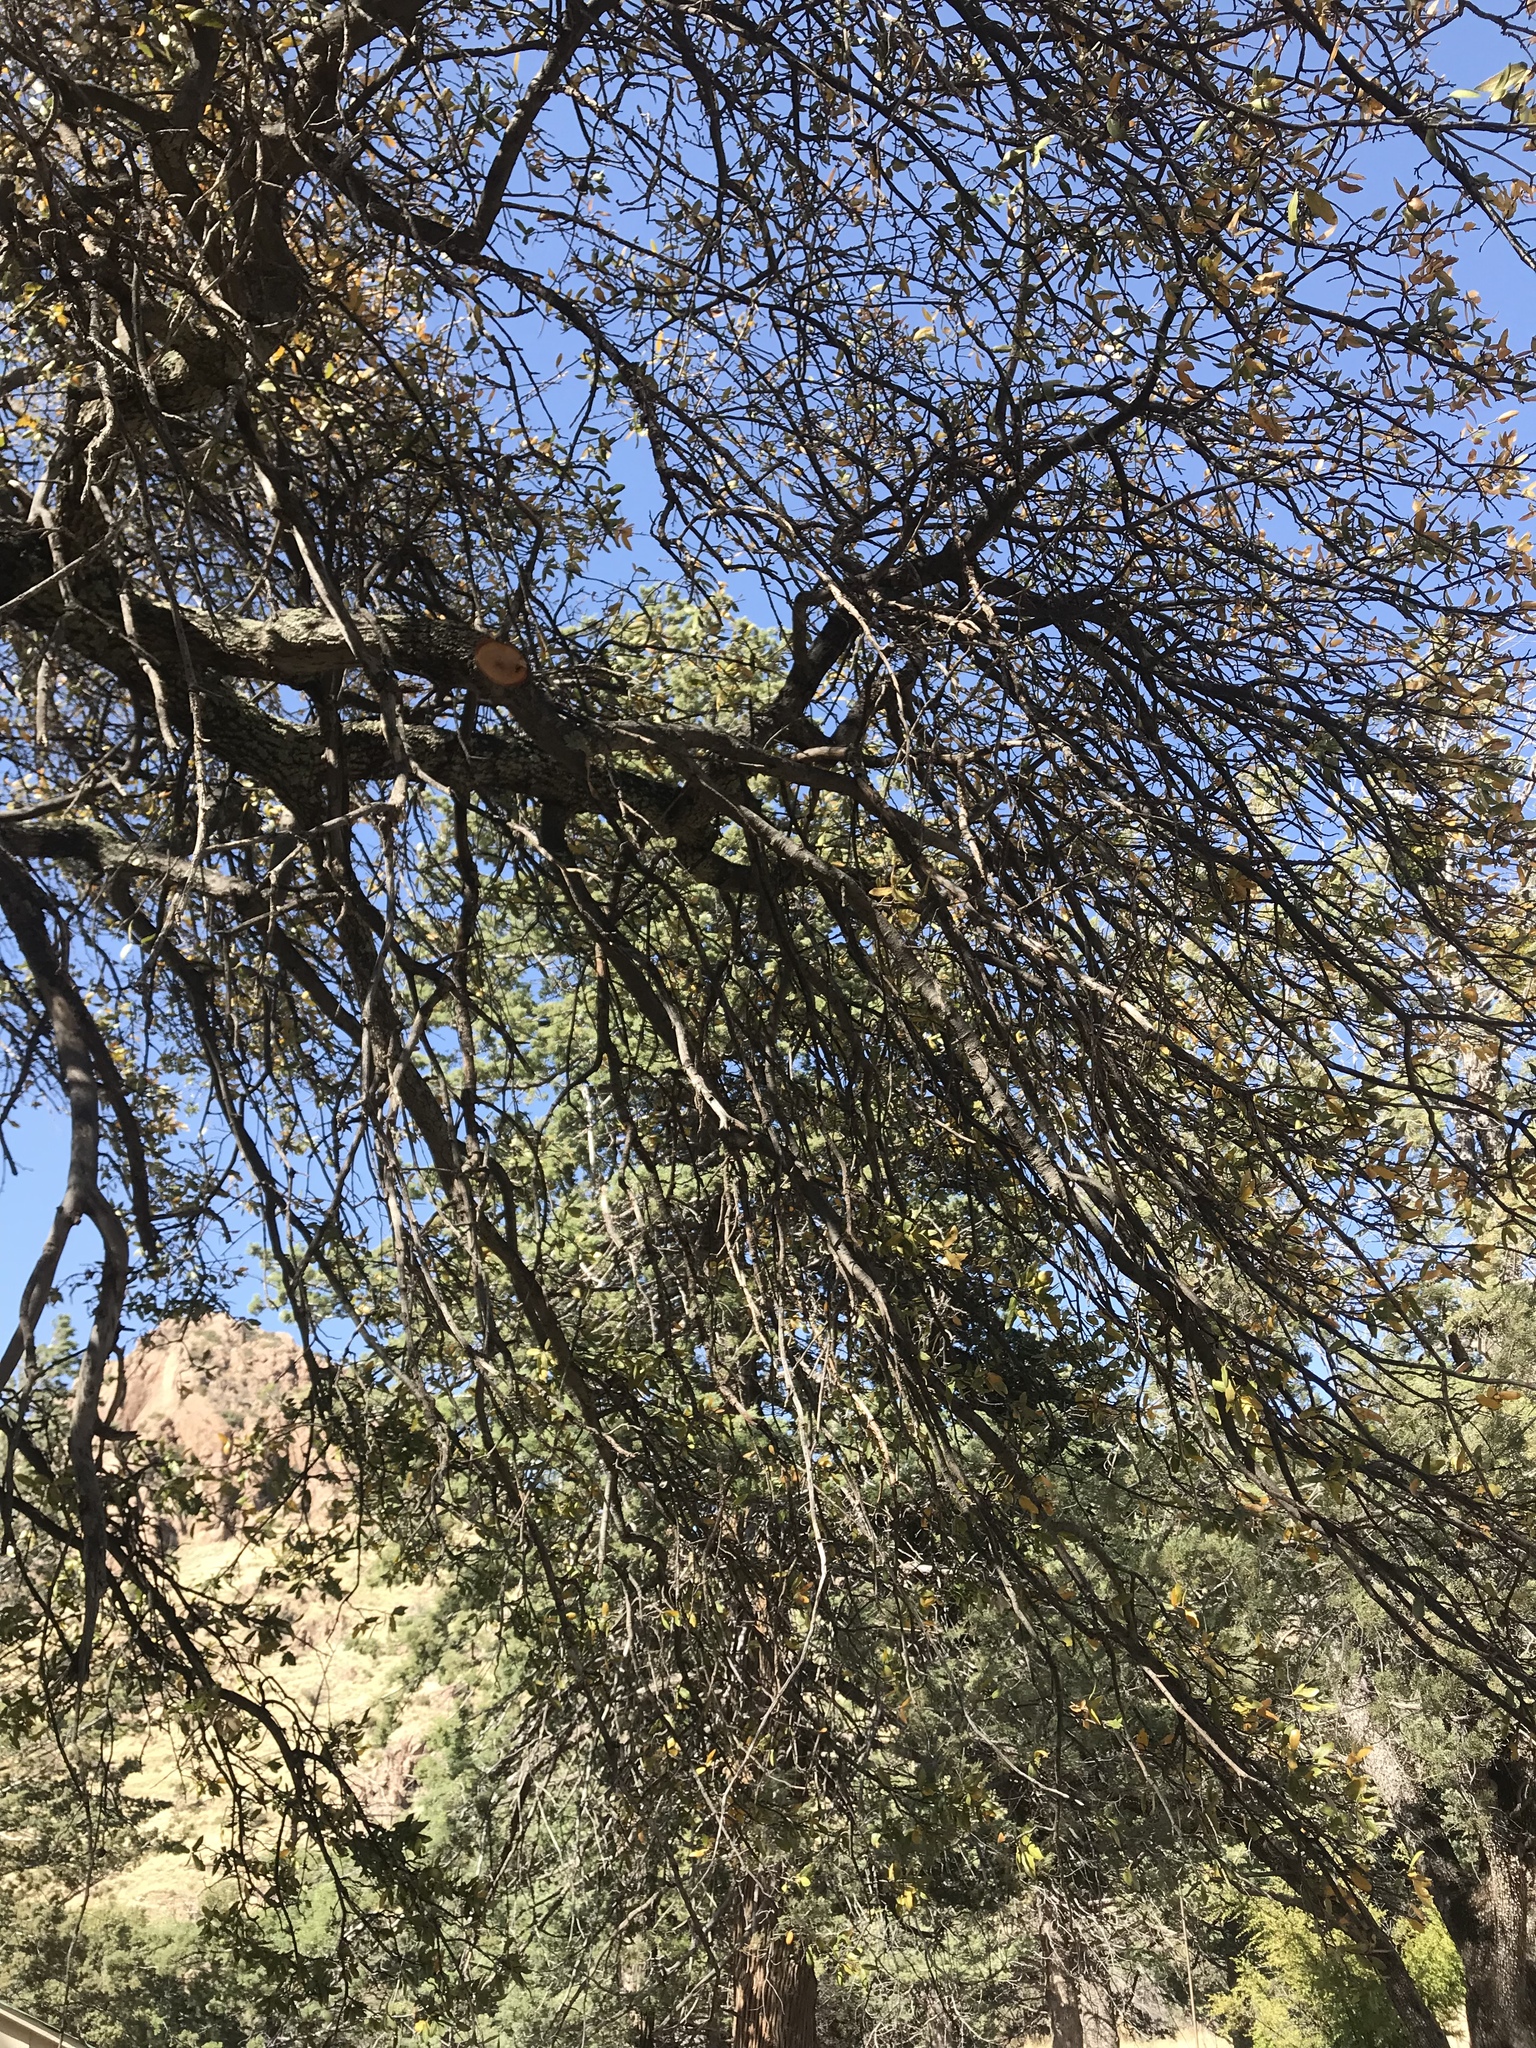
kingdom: Plantae
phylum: Tracheophyta
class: Magnoliopsida
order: Fagales
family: Fagaceae
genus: Quercus
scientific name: Quercus arizonica
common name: Arizona white oak
